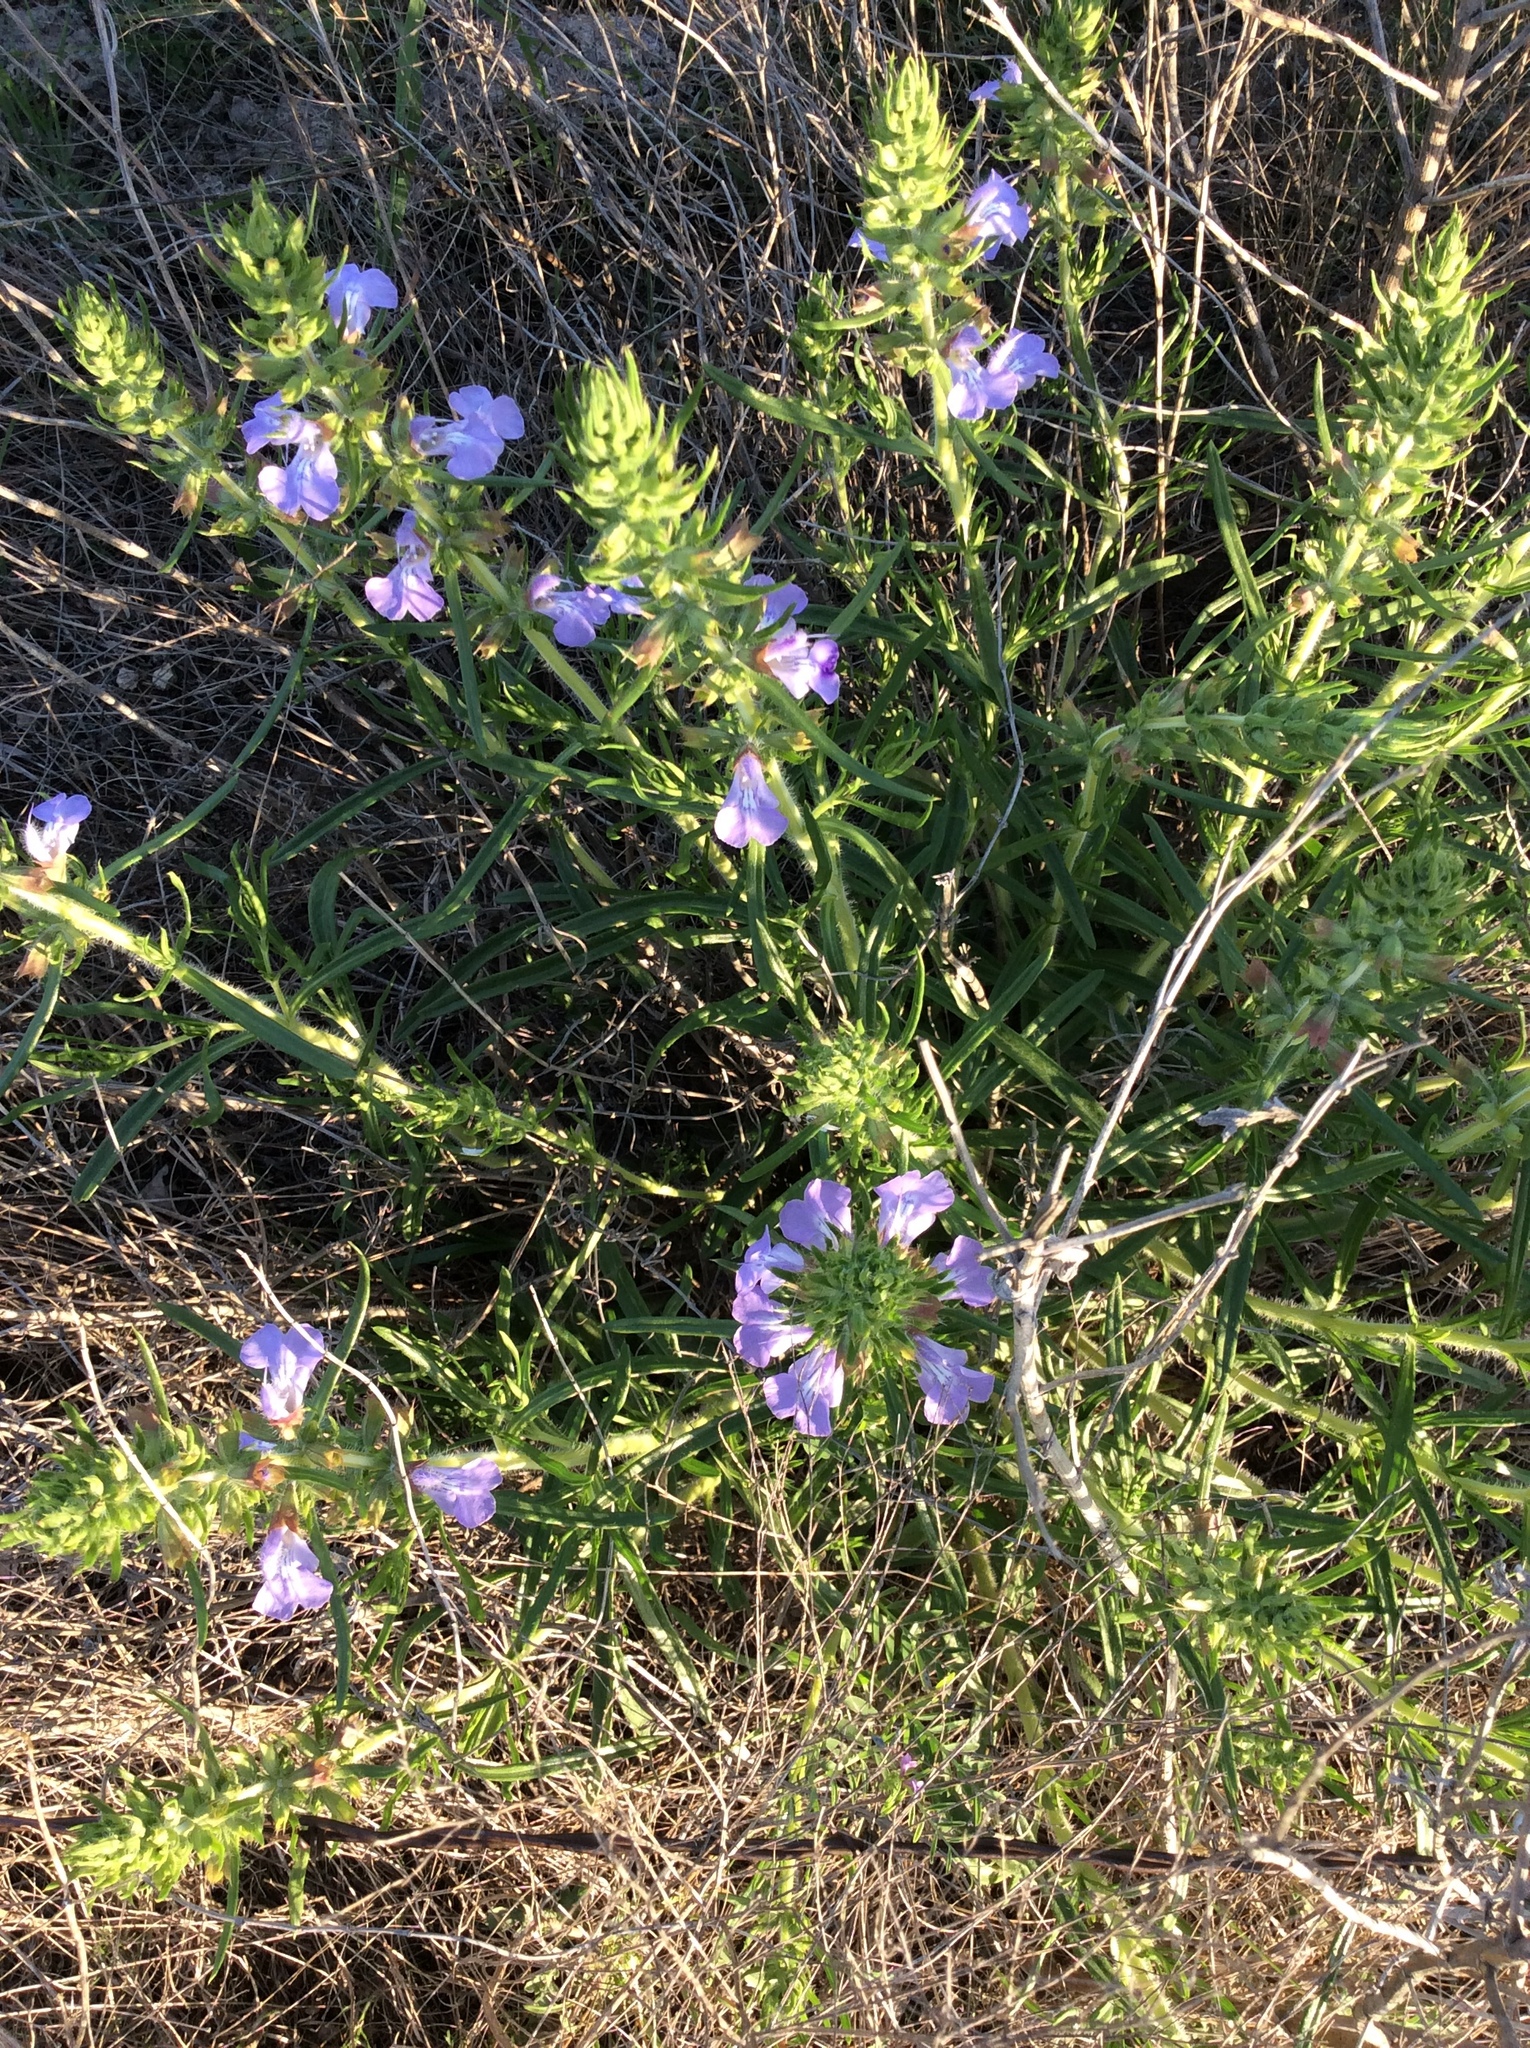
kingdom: Plantae
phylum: Tracheophyta
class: Magnoliopsida
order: Lamiales
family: Lamiaceae
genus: Salvia
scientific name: Salvia engelmannii
